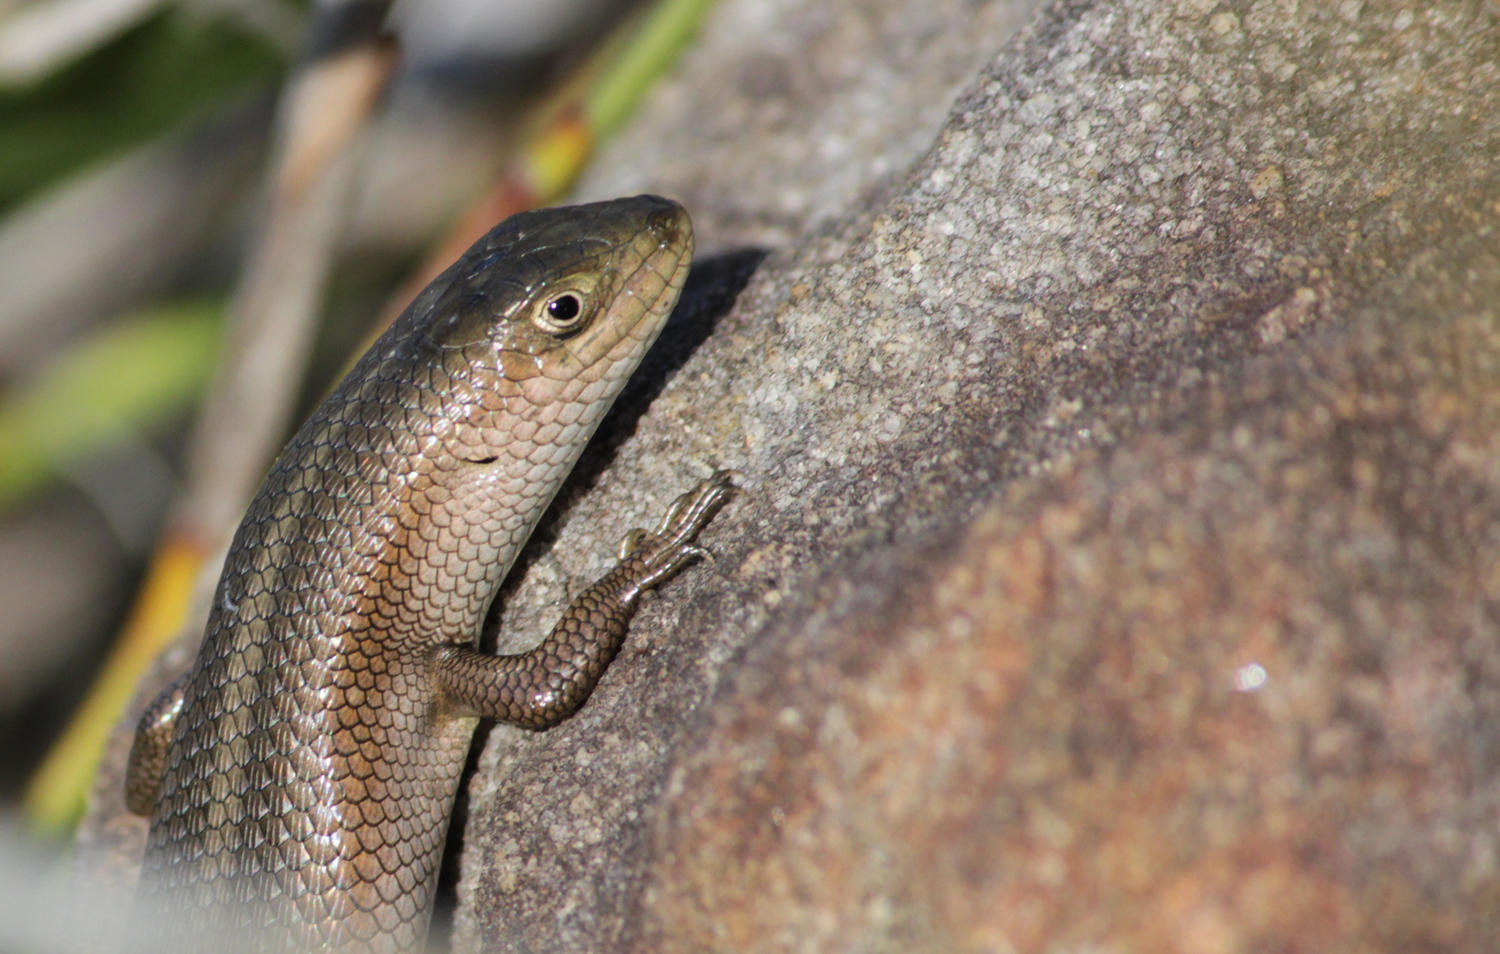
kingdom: Animalia
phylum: Chordata
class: Squamata
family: Scincidae
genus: Trachylepis
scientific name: Trachylepis capensis
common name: Cape skink
